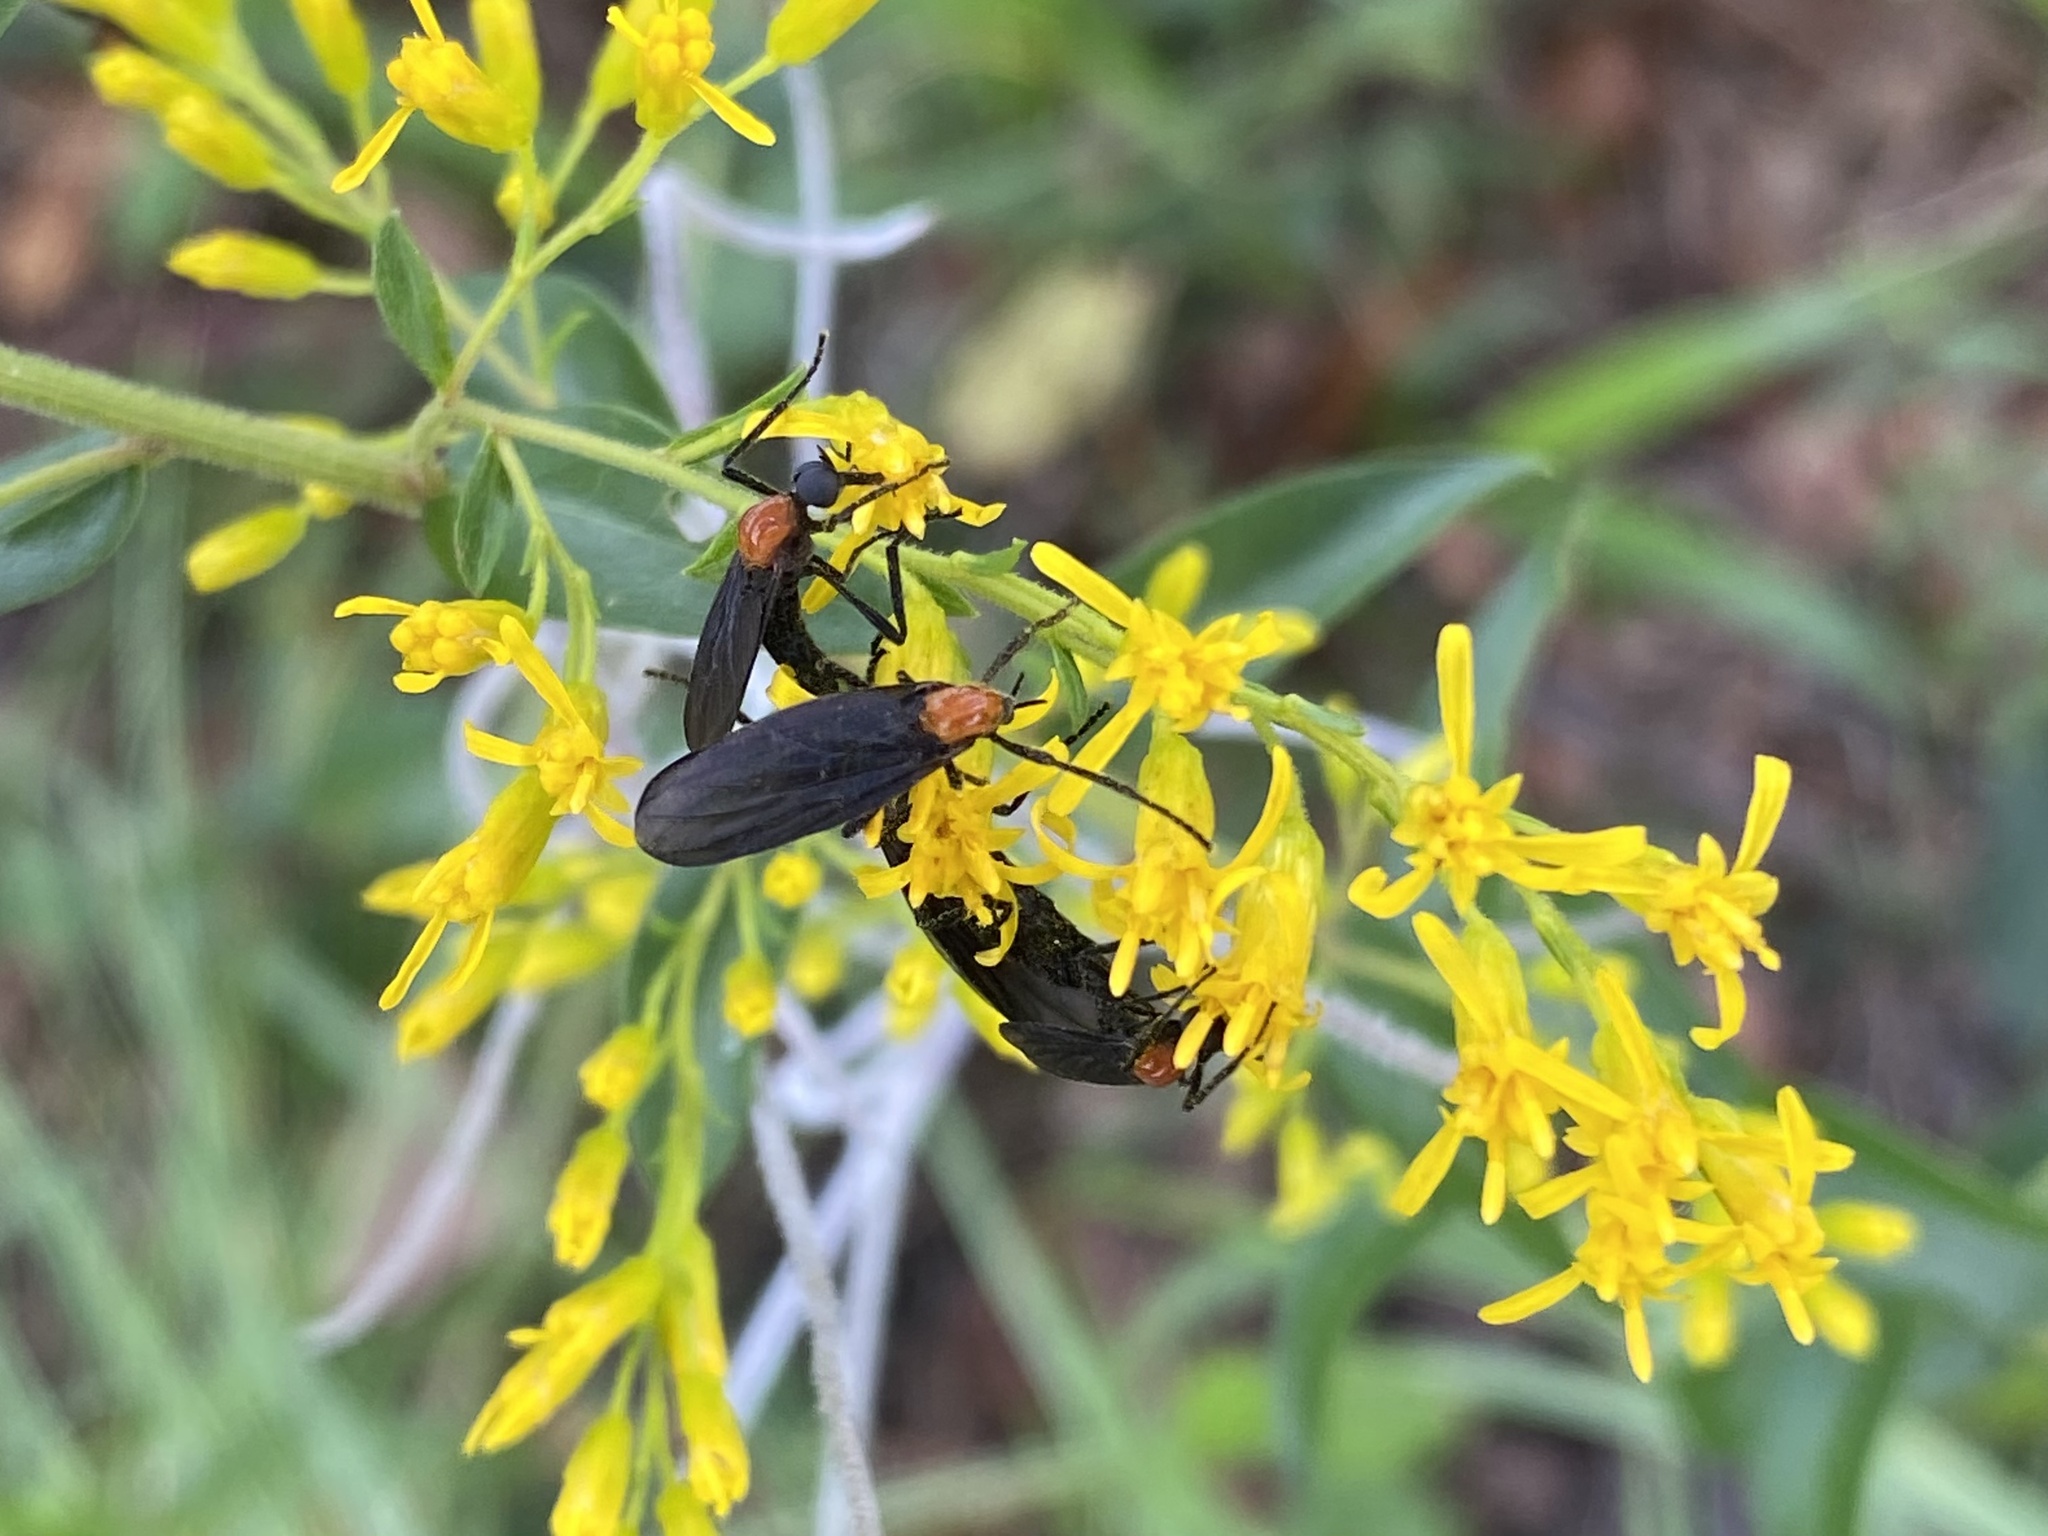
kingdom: Animalia
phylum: Arthropoda
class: Insecta
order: Diptera
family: Bibionidae
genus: Plecia
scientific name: Plecia nearctica
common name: March fly
